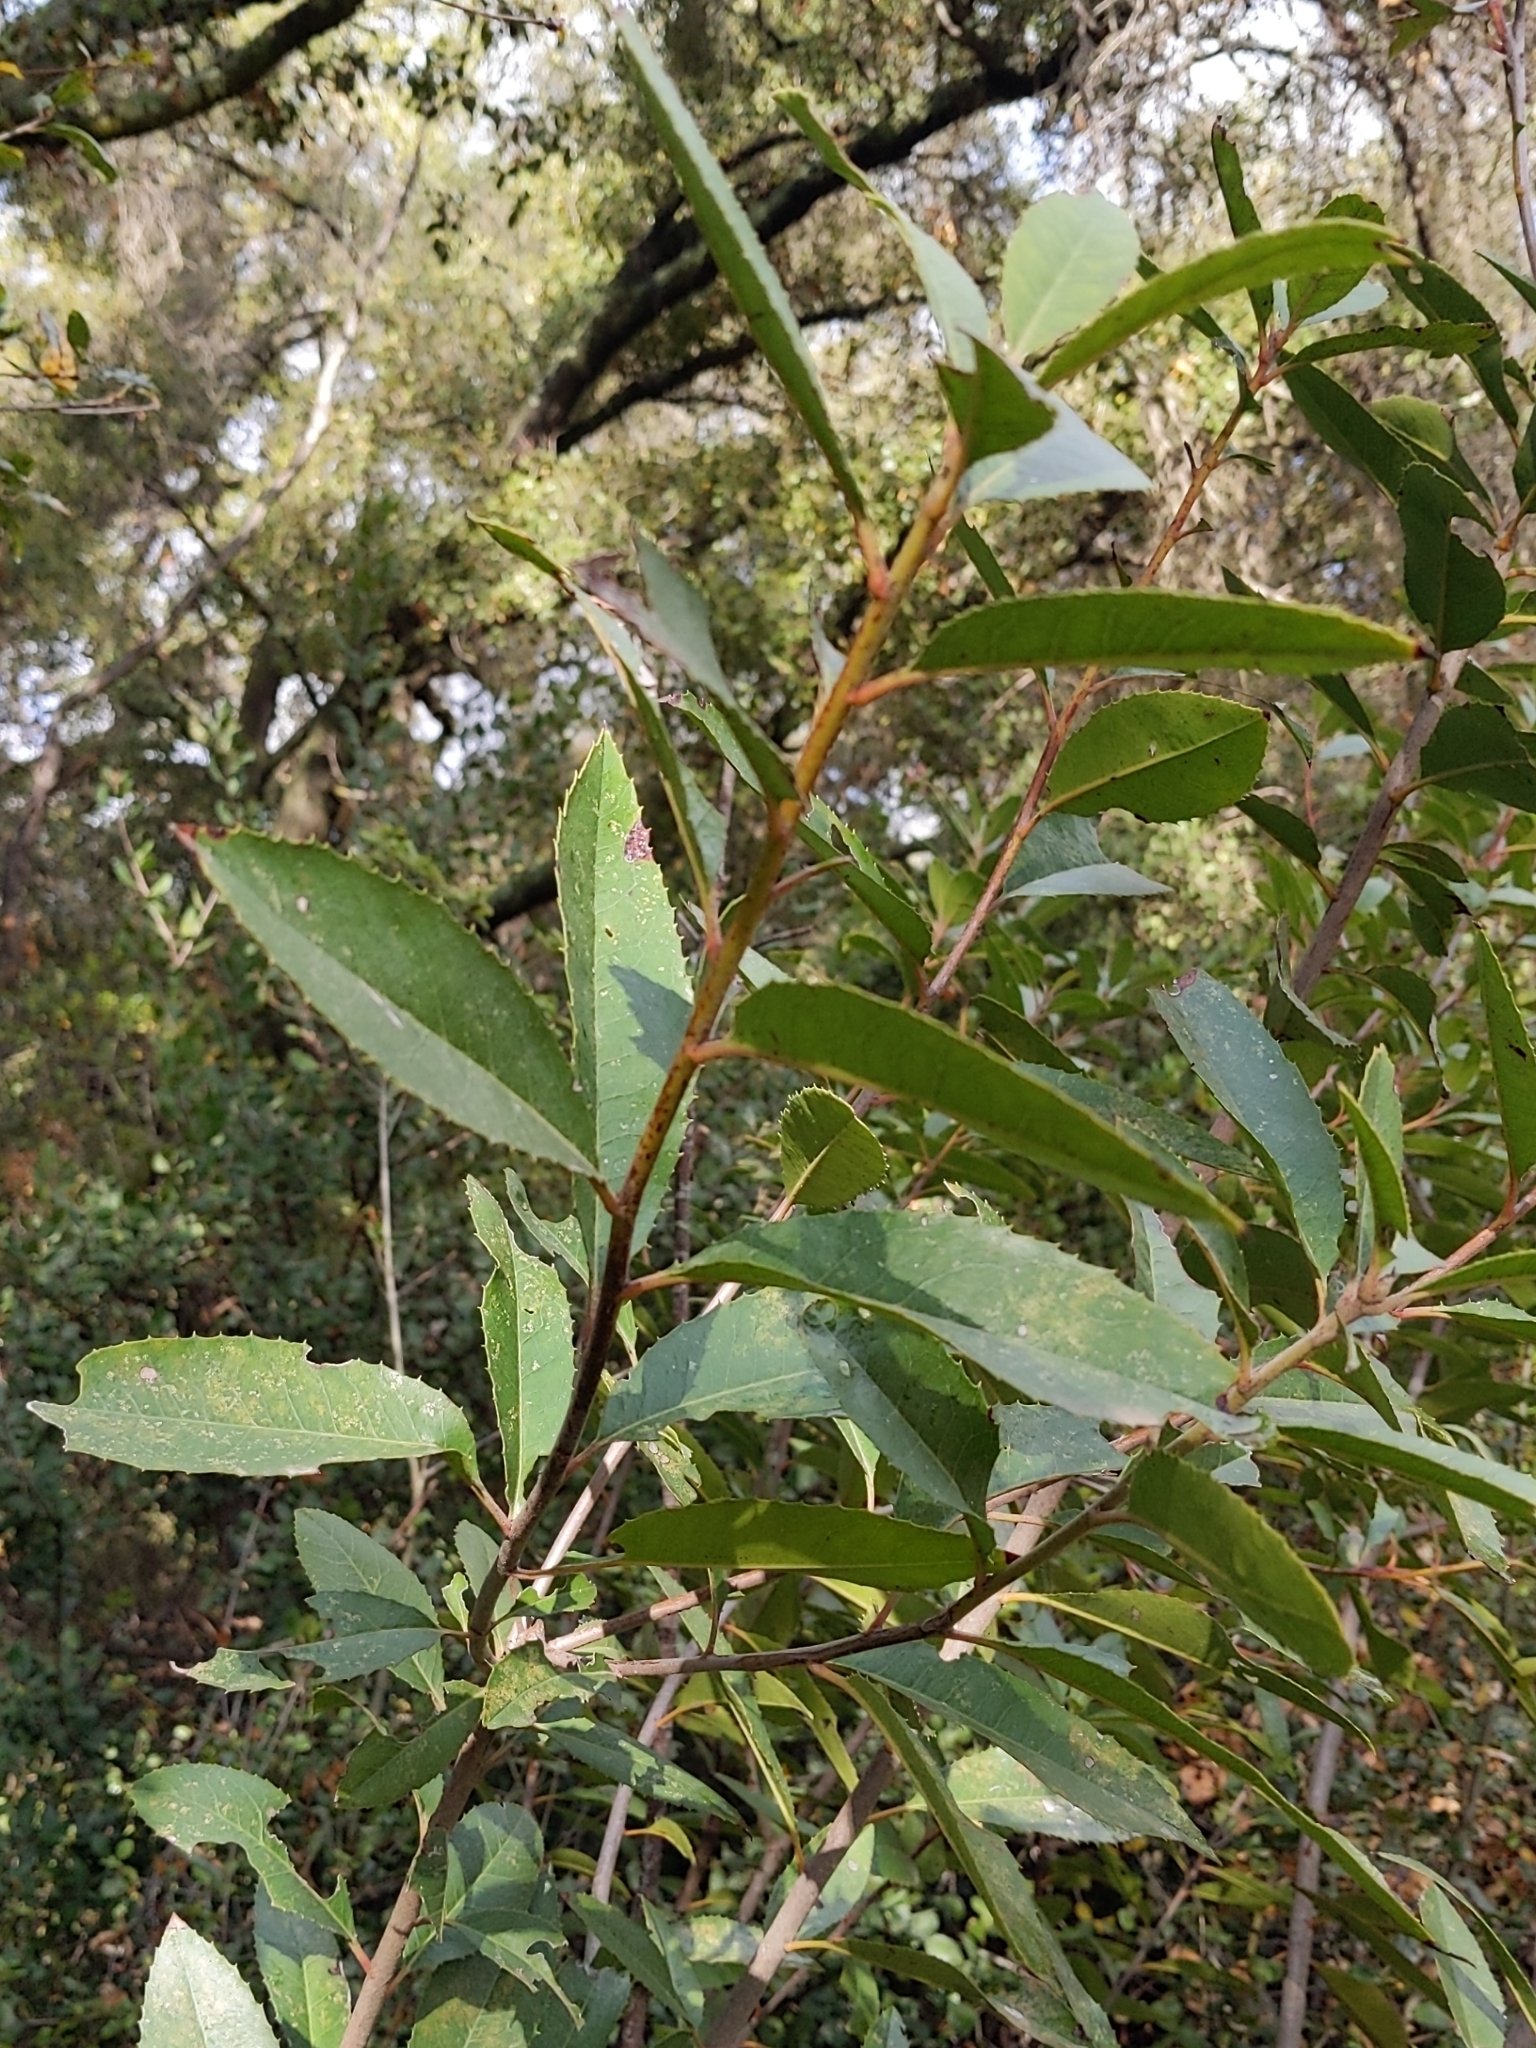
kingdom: Plantae
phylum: Tracheophyta
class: Magnoliopsida
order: Rosales
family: Rosaceae
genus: Heteromeles
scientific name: Heteromeles arbutifolia
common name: California-holly
